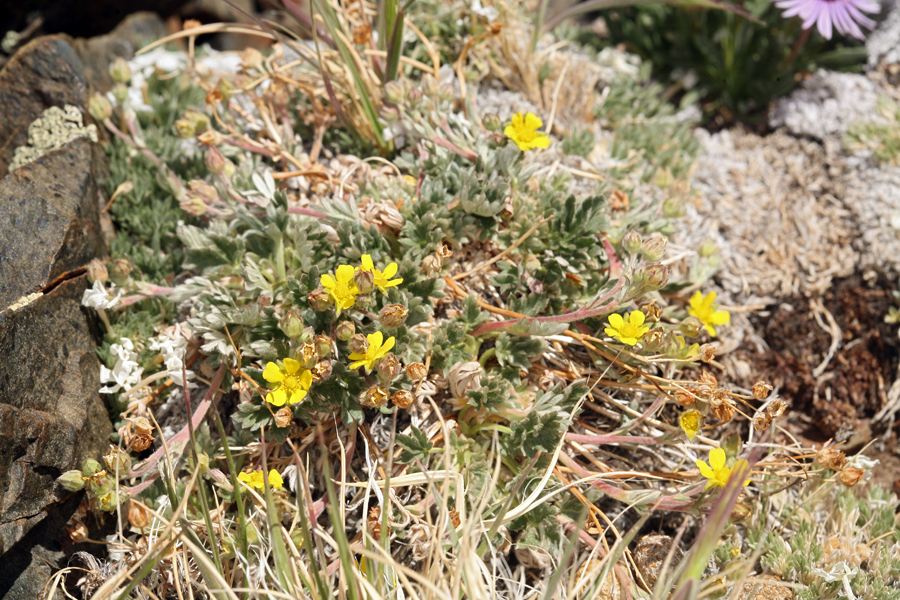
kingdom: Plantae
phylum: Tracheophyta
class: Magnoliopsida
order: Rosales
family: Rosaceae
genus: Potentilla
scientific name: Potentilla pseudosericea
